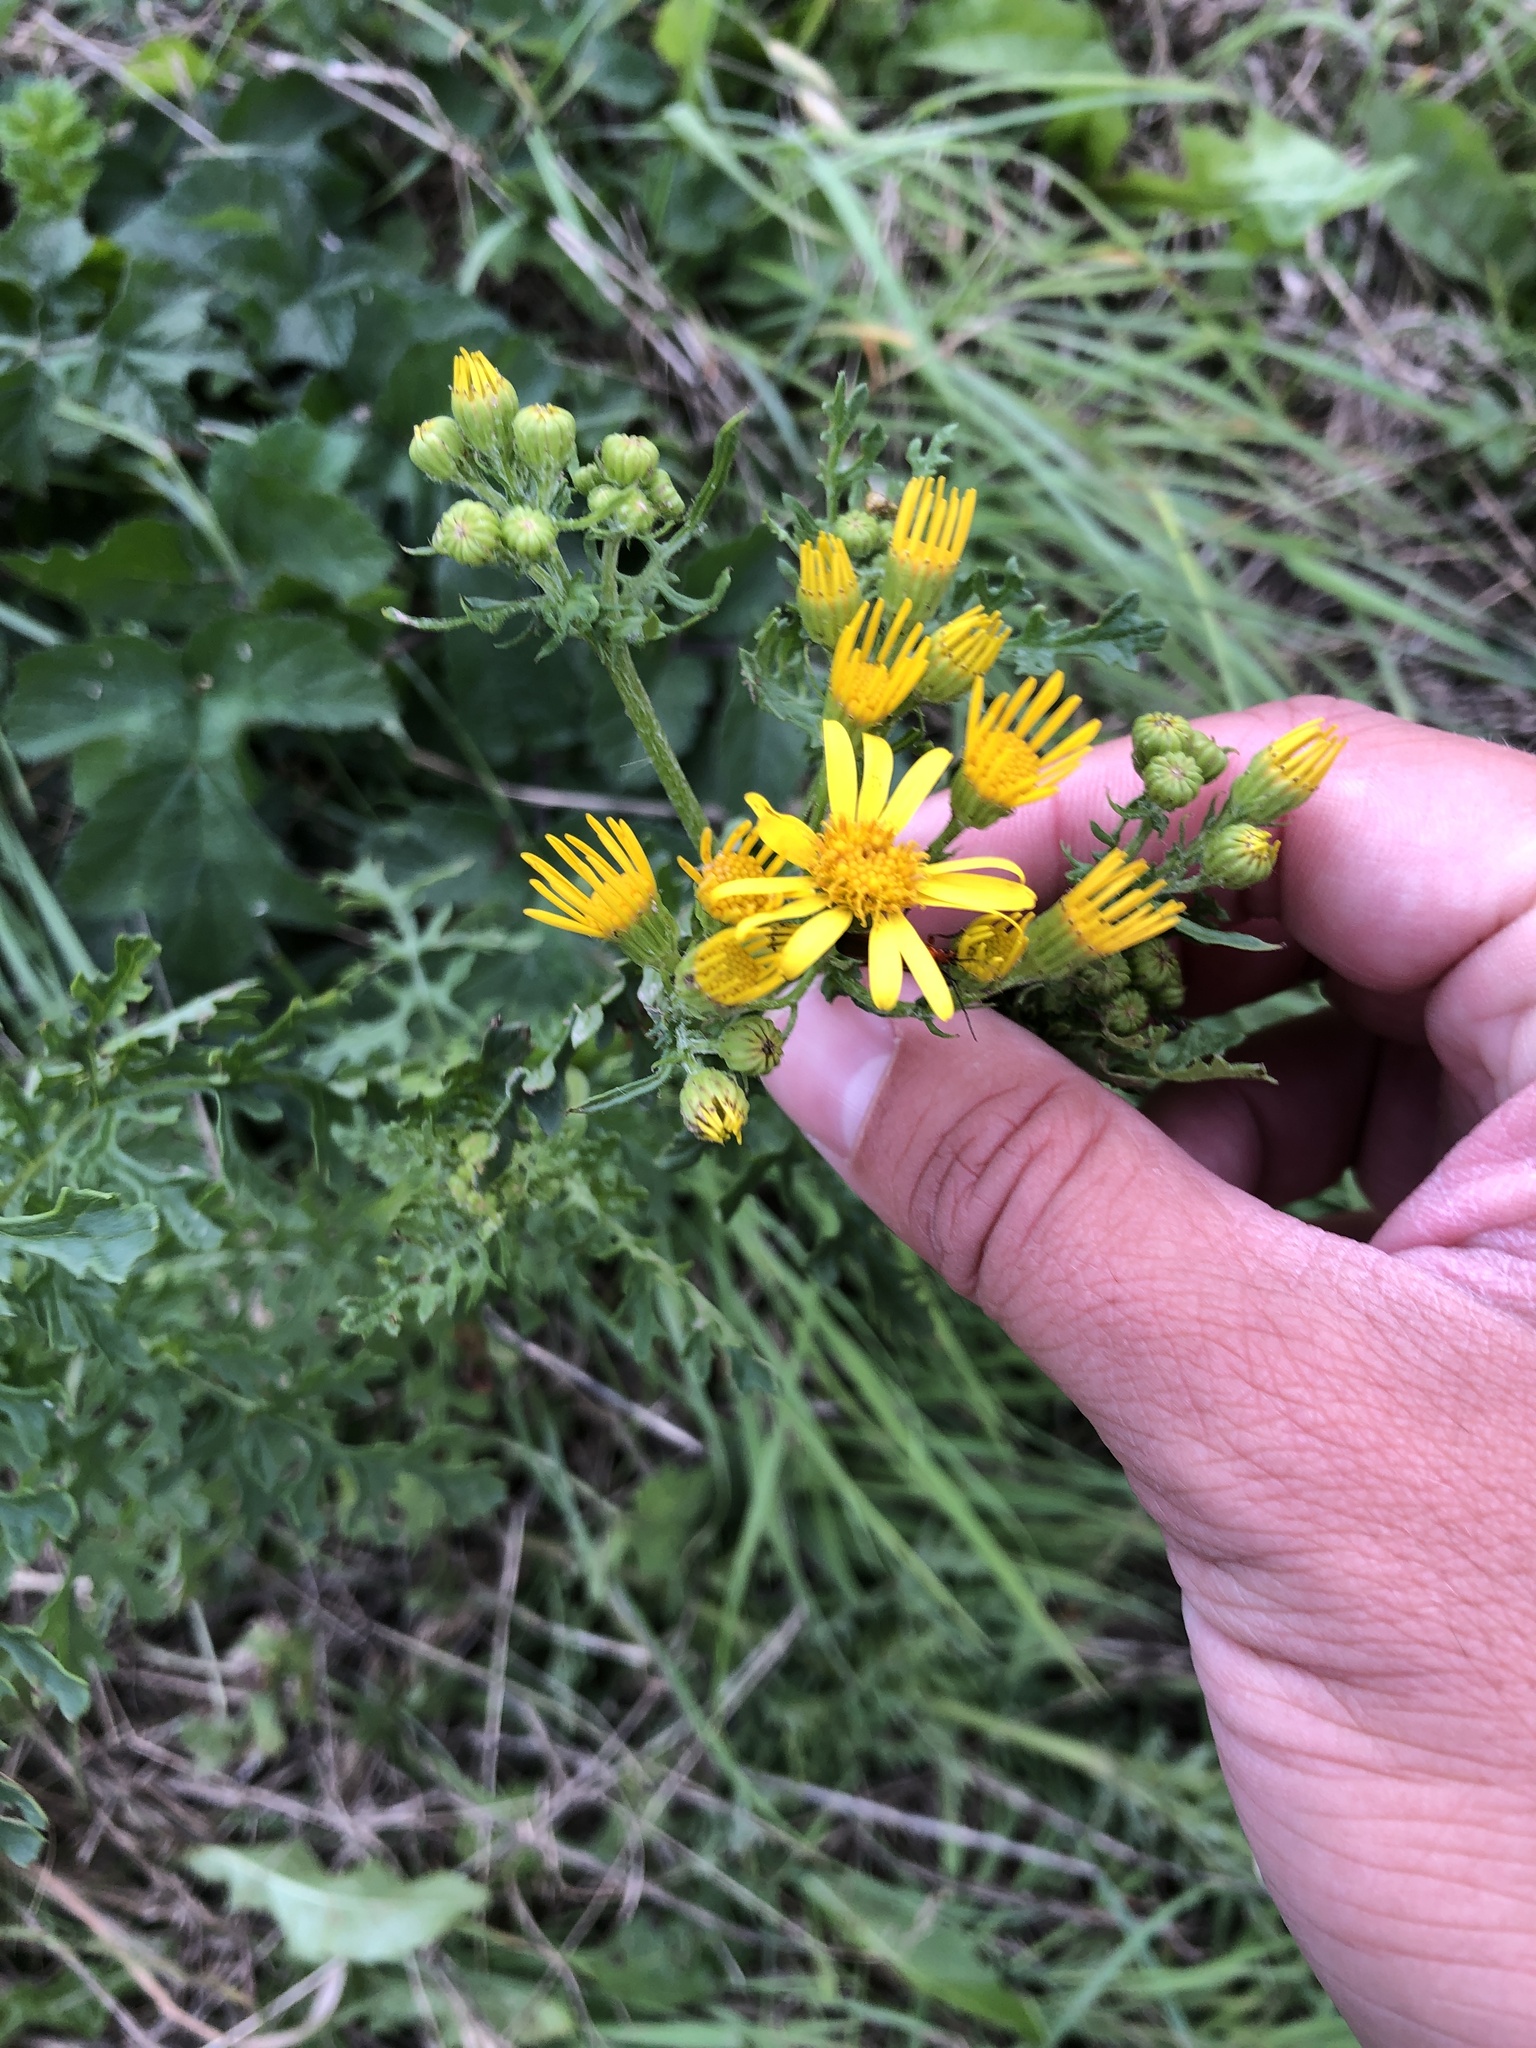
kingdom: Plantae
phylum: Tracheophyta
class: Magnoliopsida
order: Asterales
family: Asteraceae
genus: Jacobaea
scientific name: Jacobaea vulgaris
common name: Stinking willie
